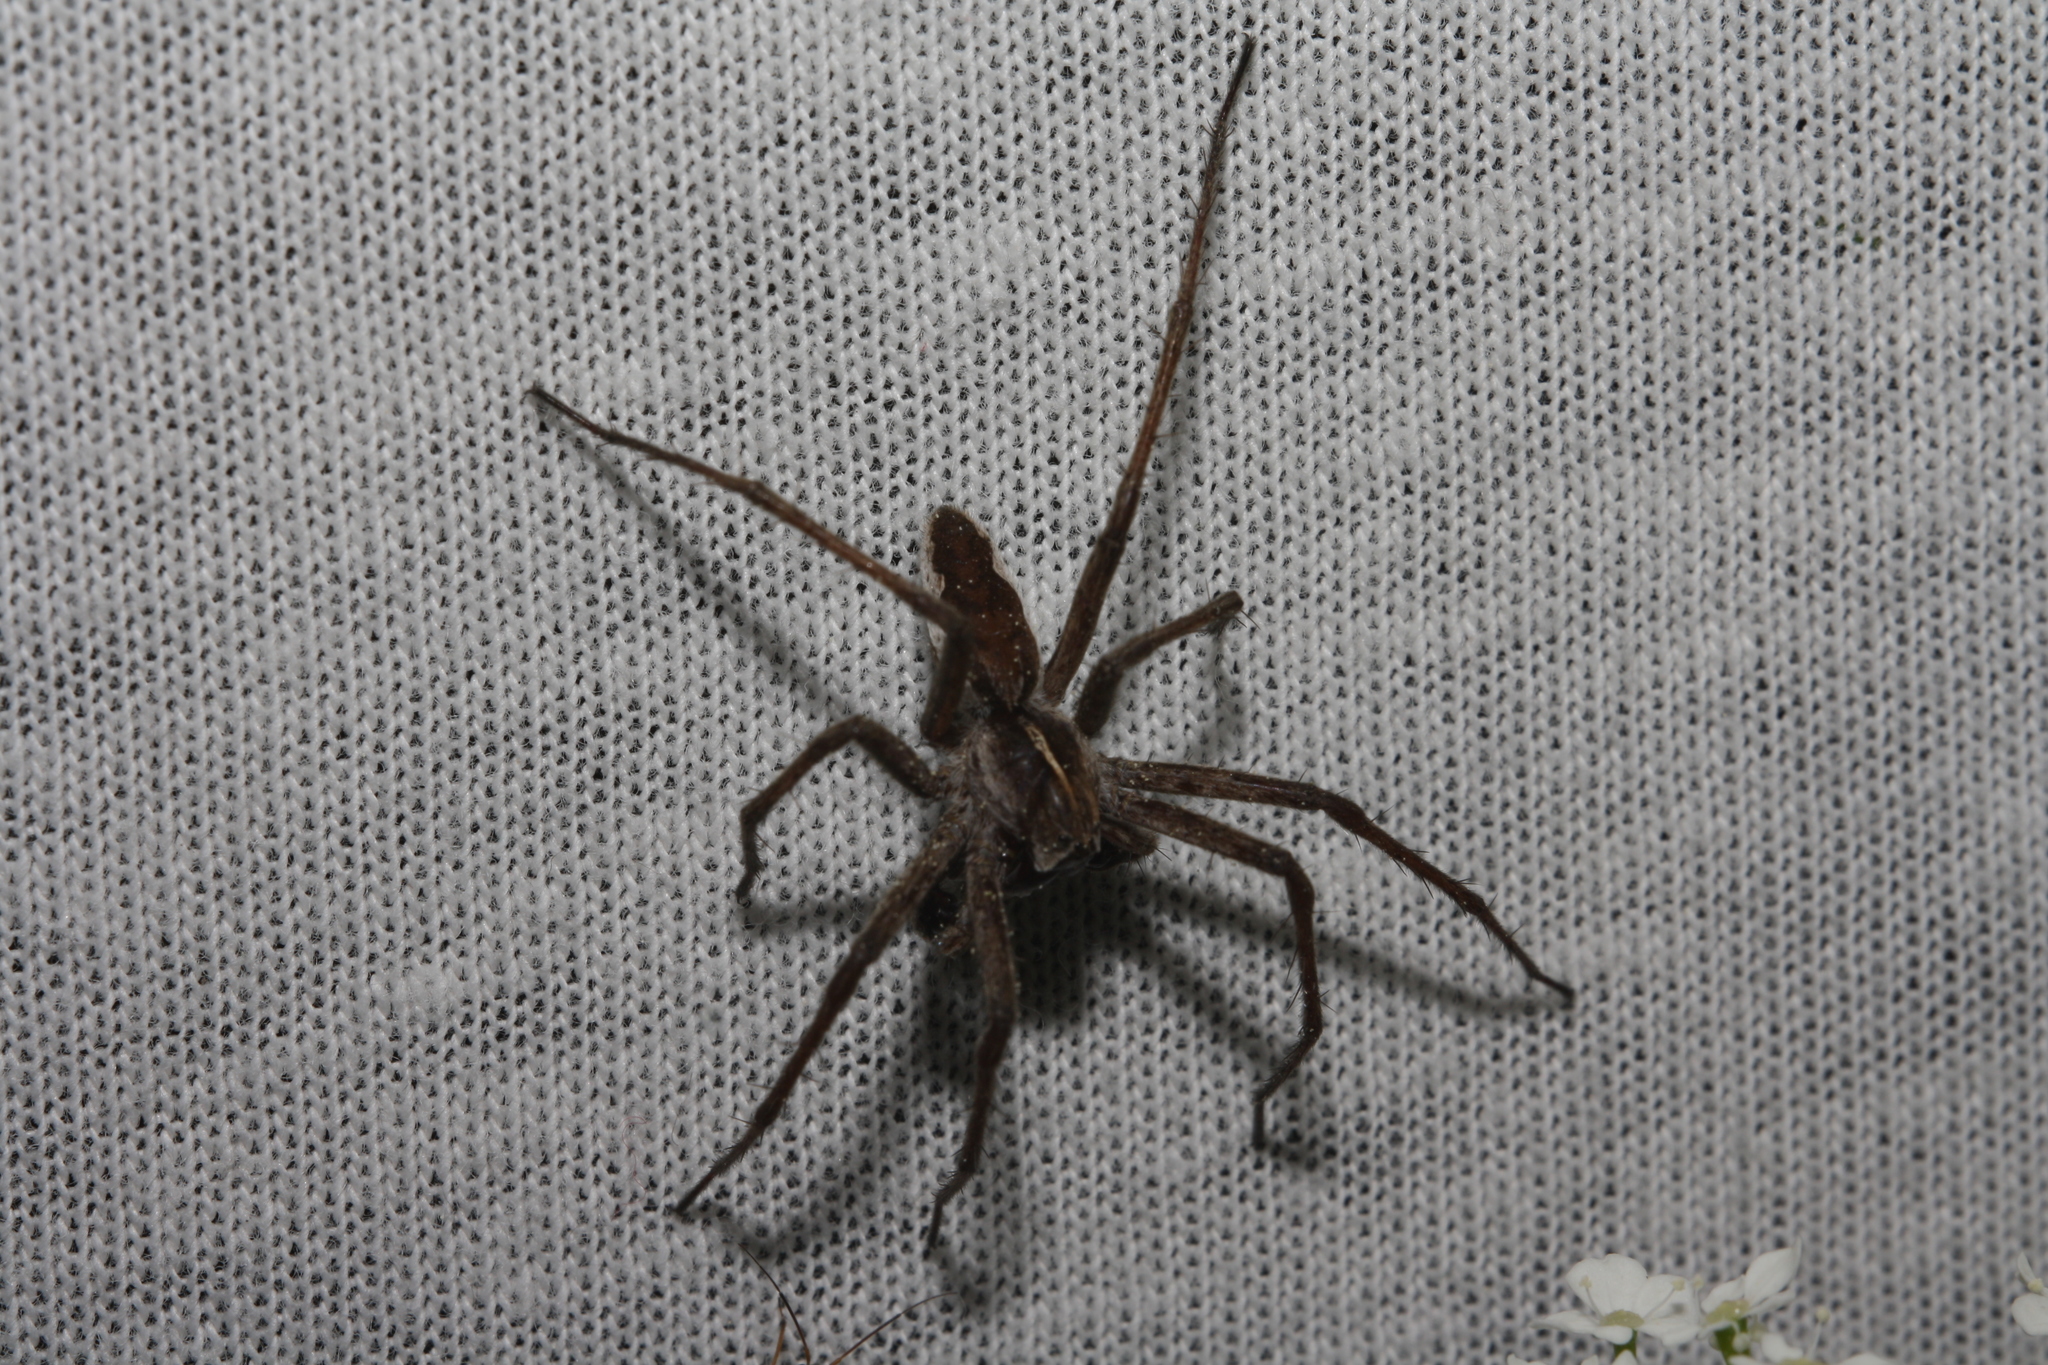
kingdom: Animalia
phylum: Arthropoda
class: Arachnida
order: Araneae
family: Pisauridae
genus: Pisaura
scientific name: Pisaura mirabilis
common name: Tent spider
